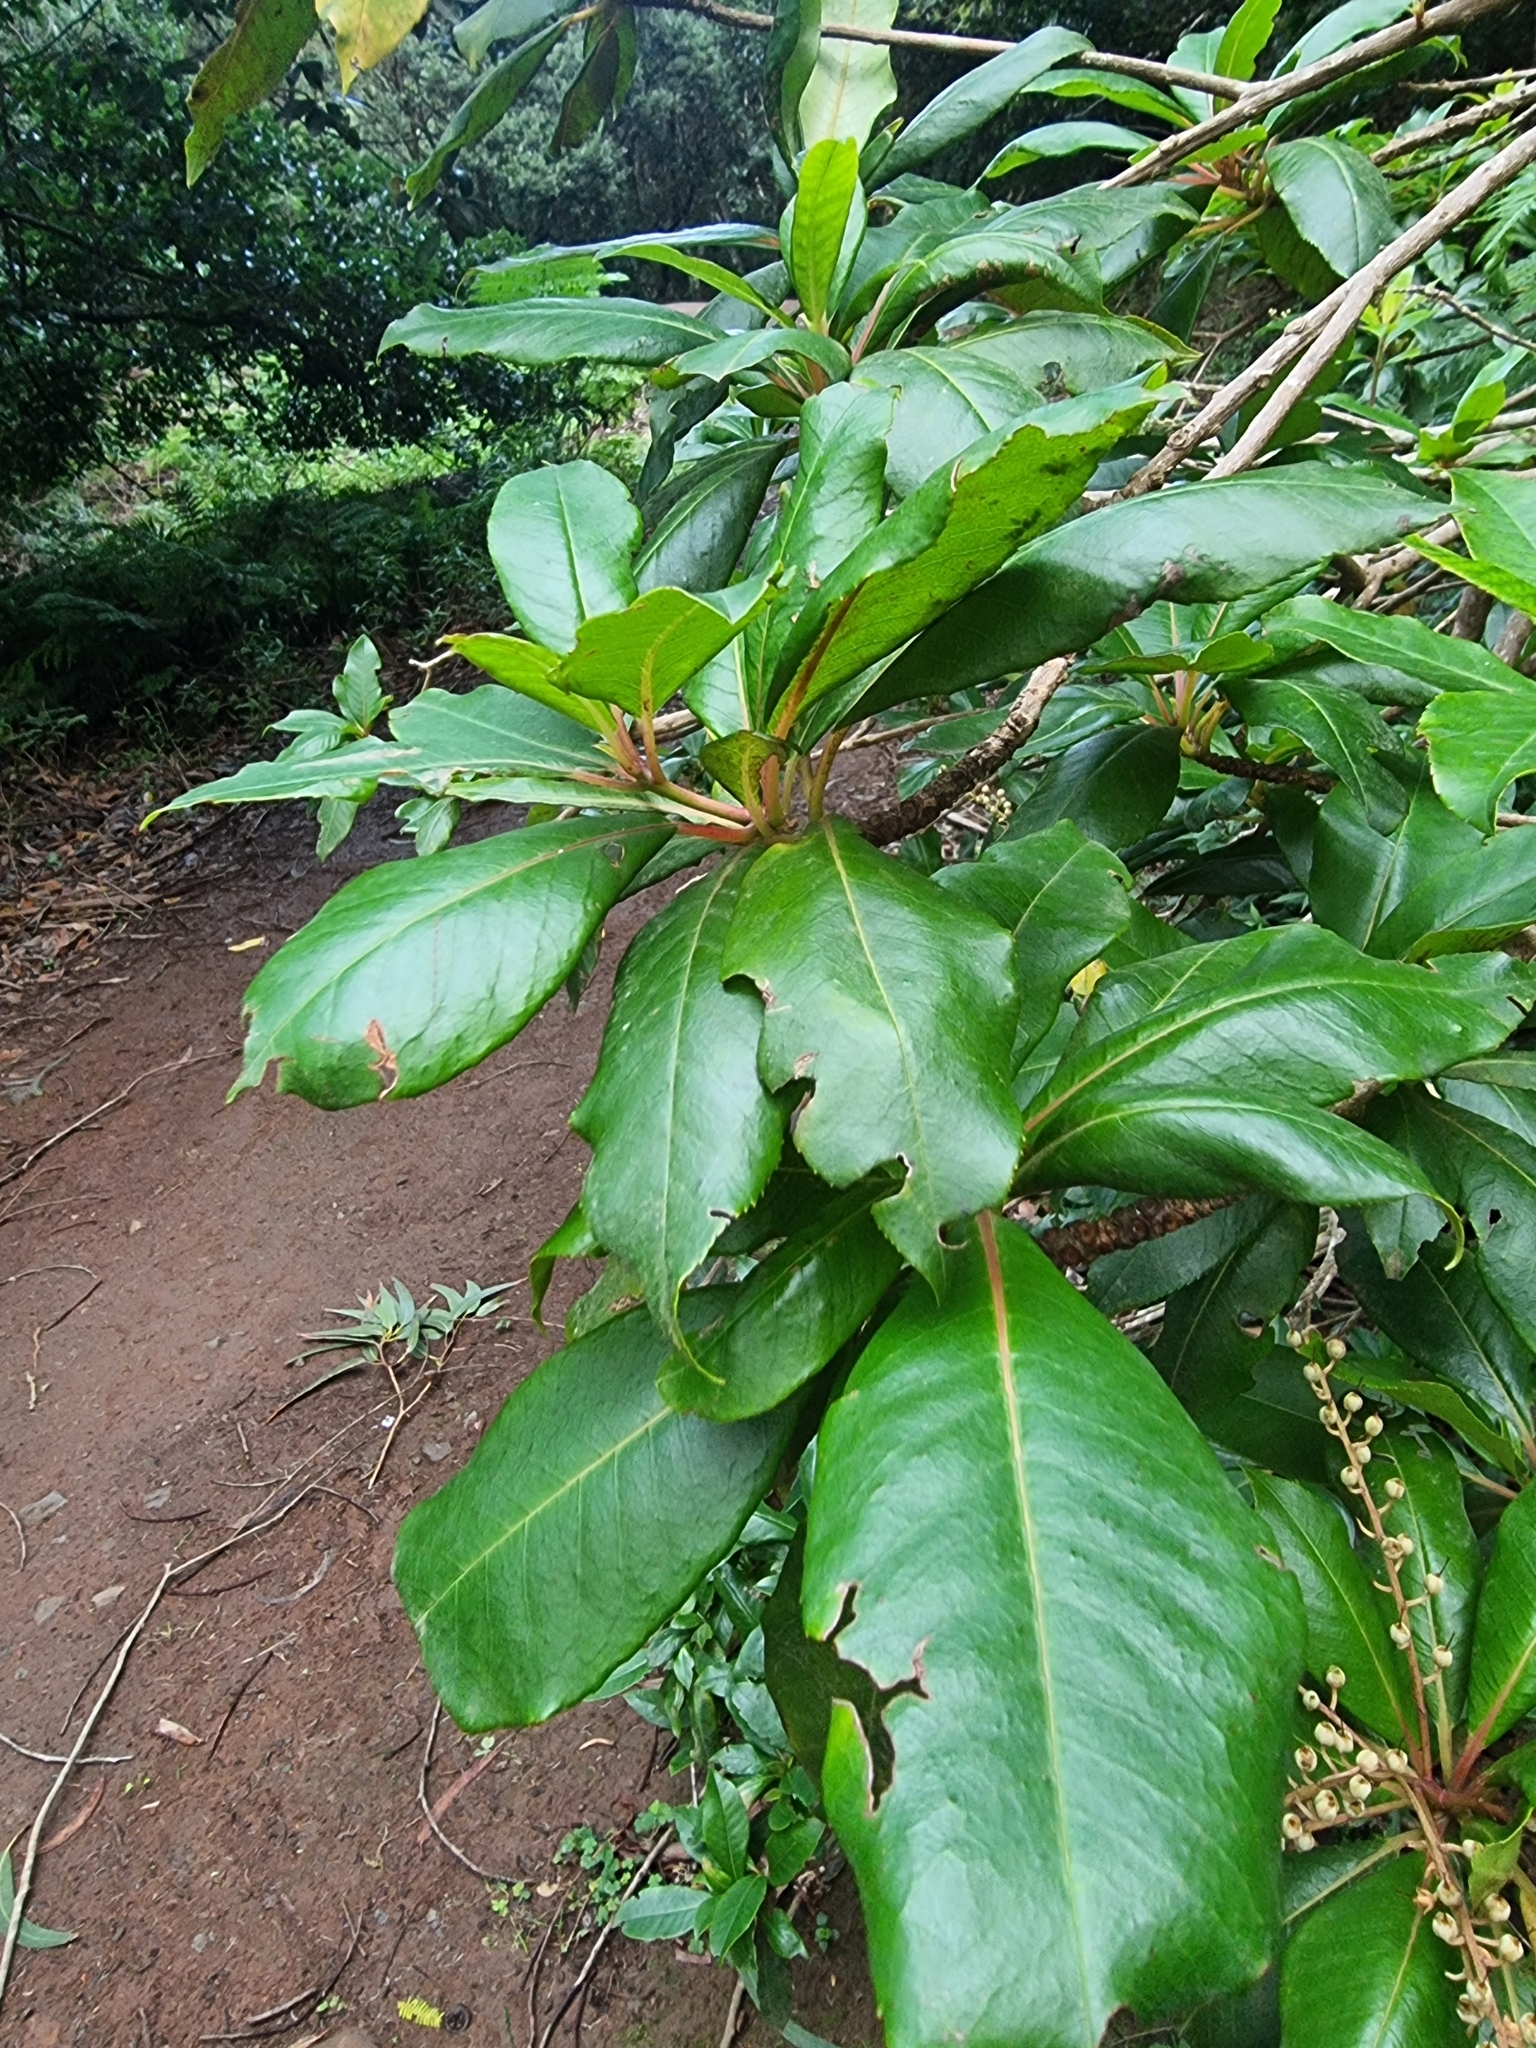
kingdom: Plantae
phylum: Tracheophyta
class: Magnoliopsida
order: Ericales
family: Clethraceae
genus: Clethra
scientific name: Clethra arborea
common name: Lily-of-the-valley-tree
